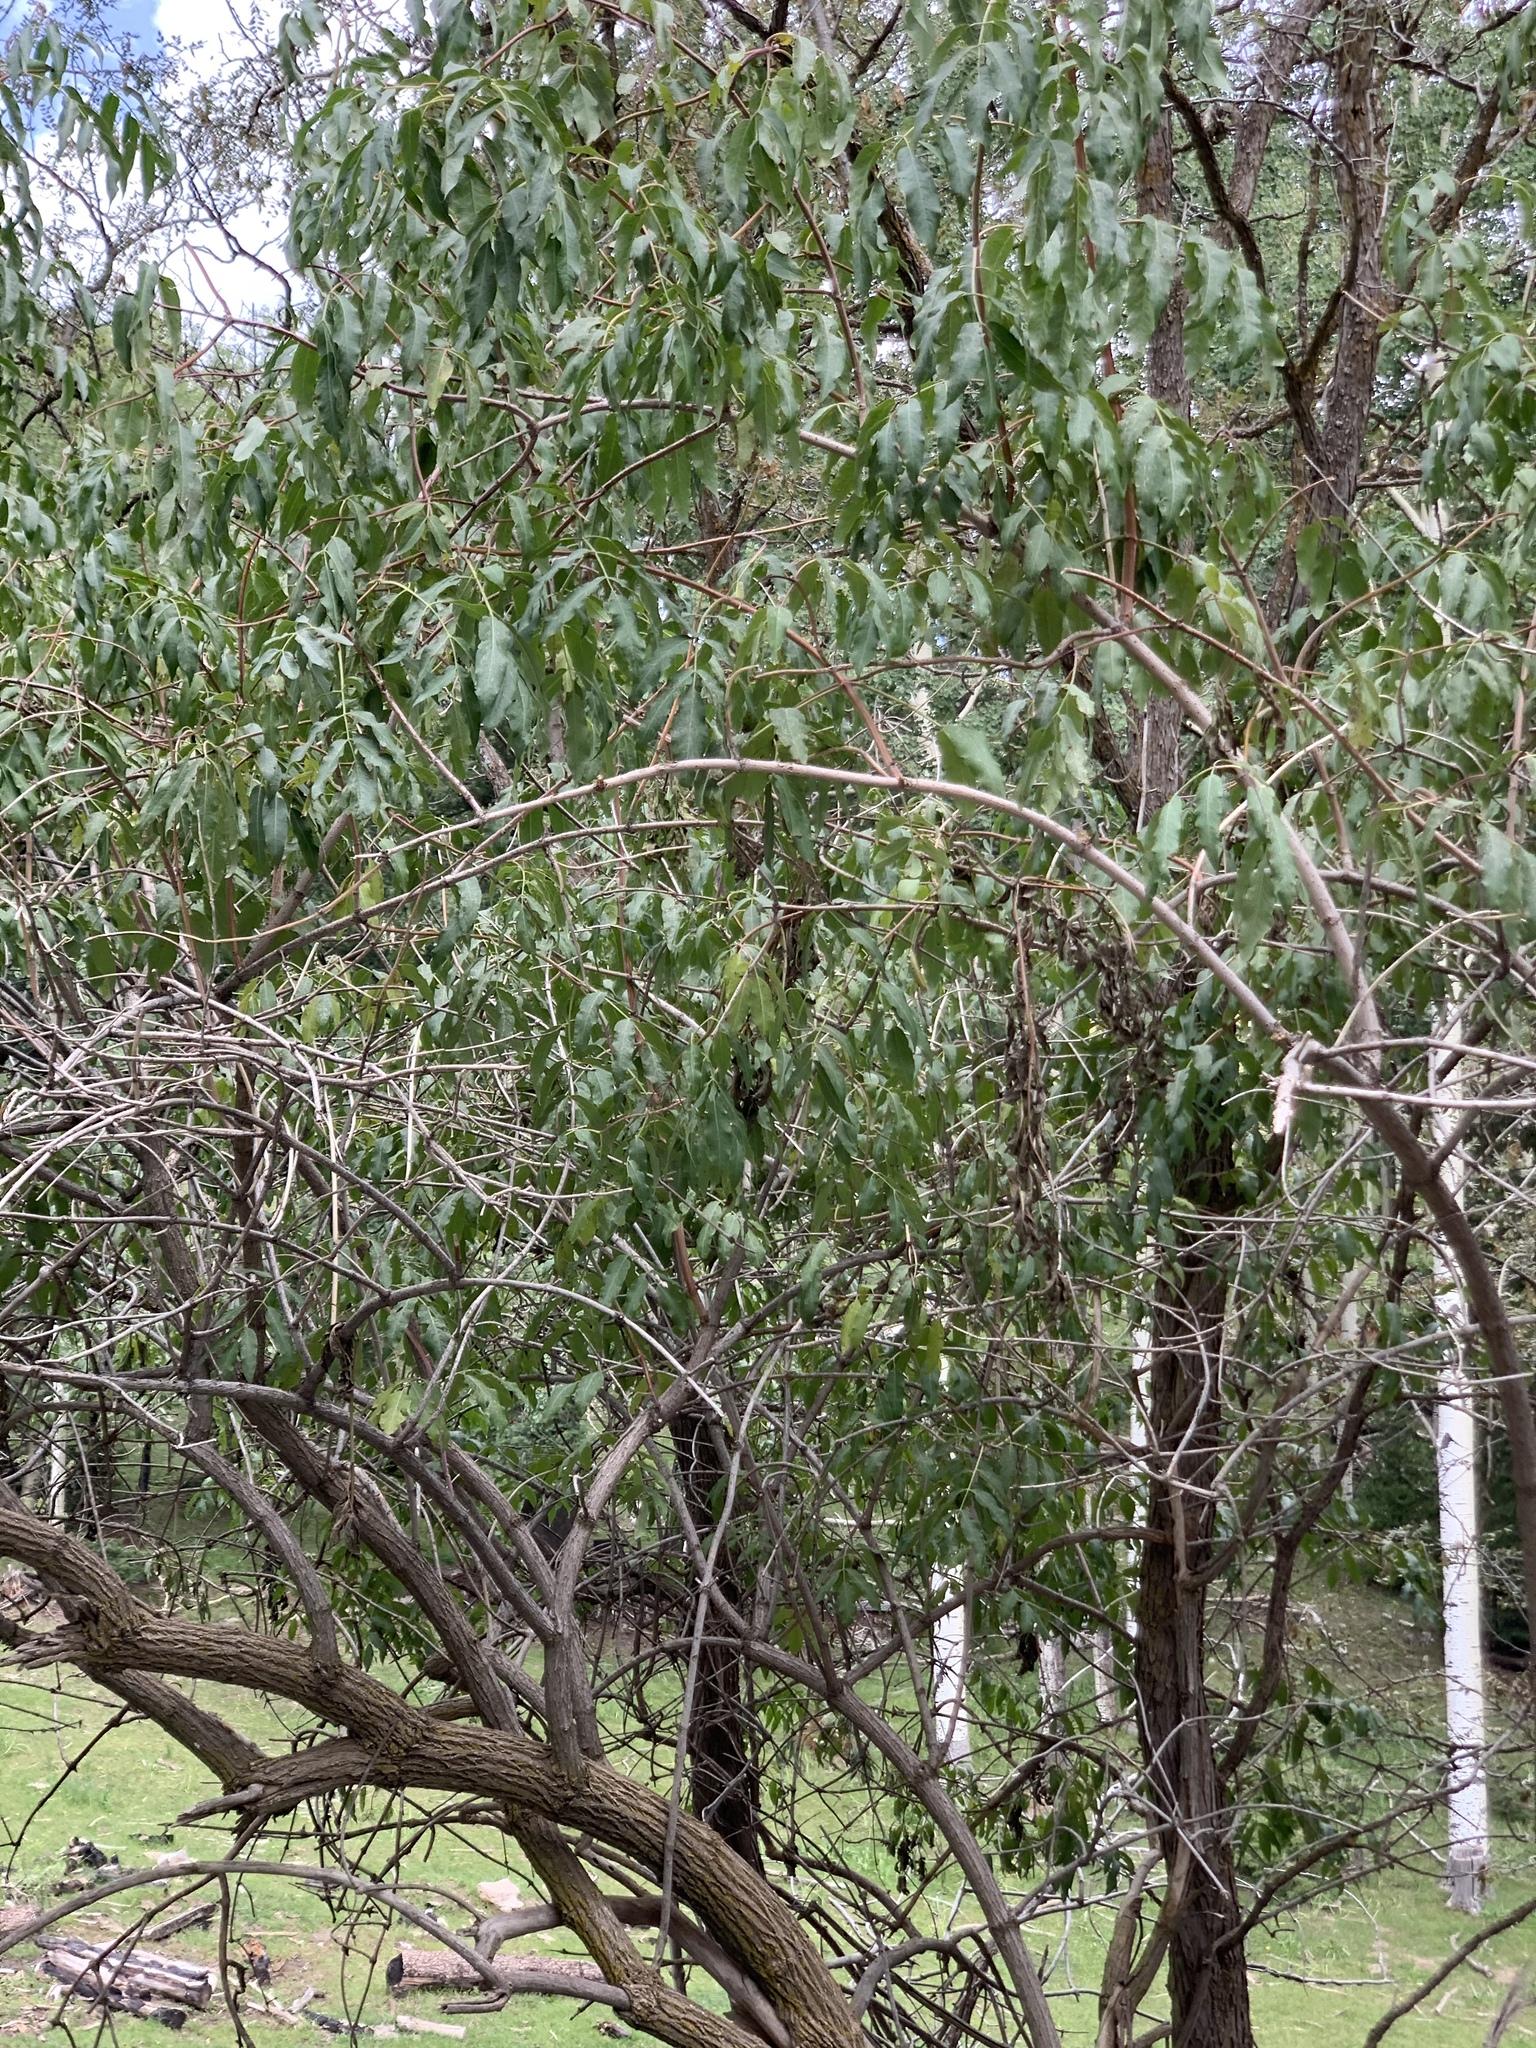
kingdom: Plantae
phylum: Tracheophyta
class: Magnoliopsida
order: Dipsacales
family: Viburnaceae
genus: Sambucus
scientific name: Sambucus cerulea
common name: Blue elder
